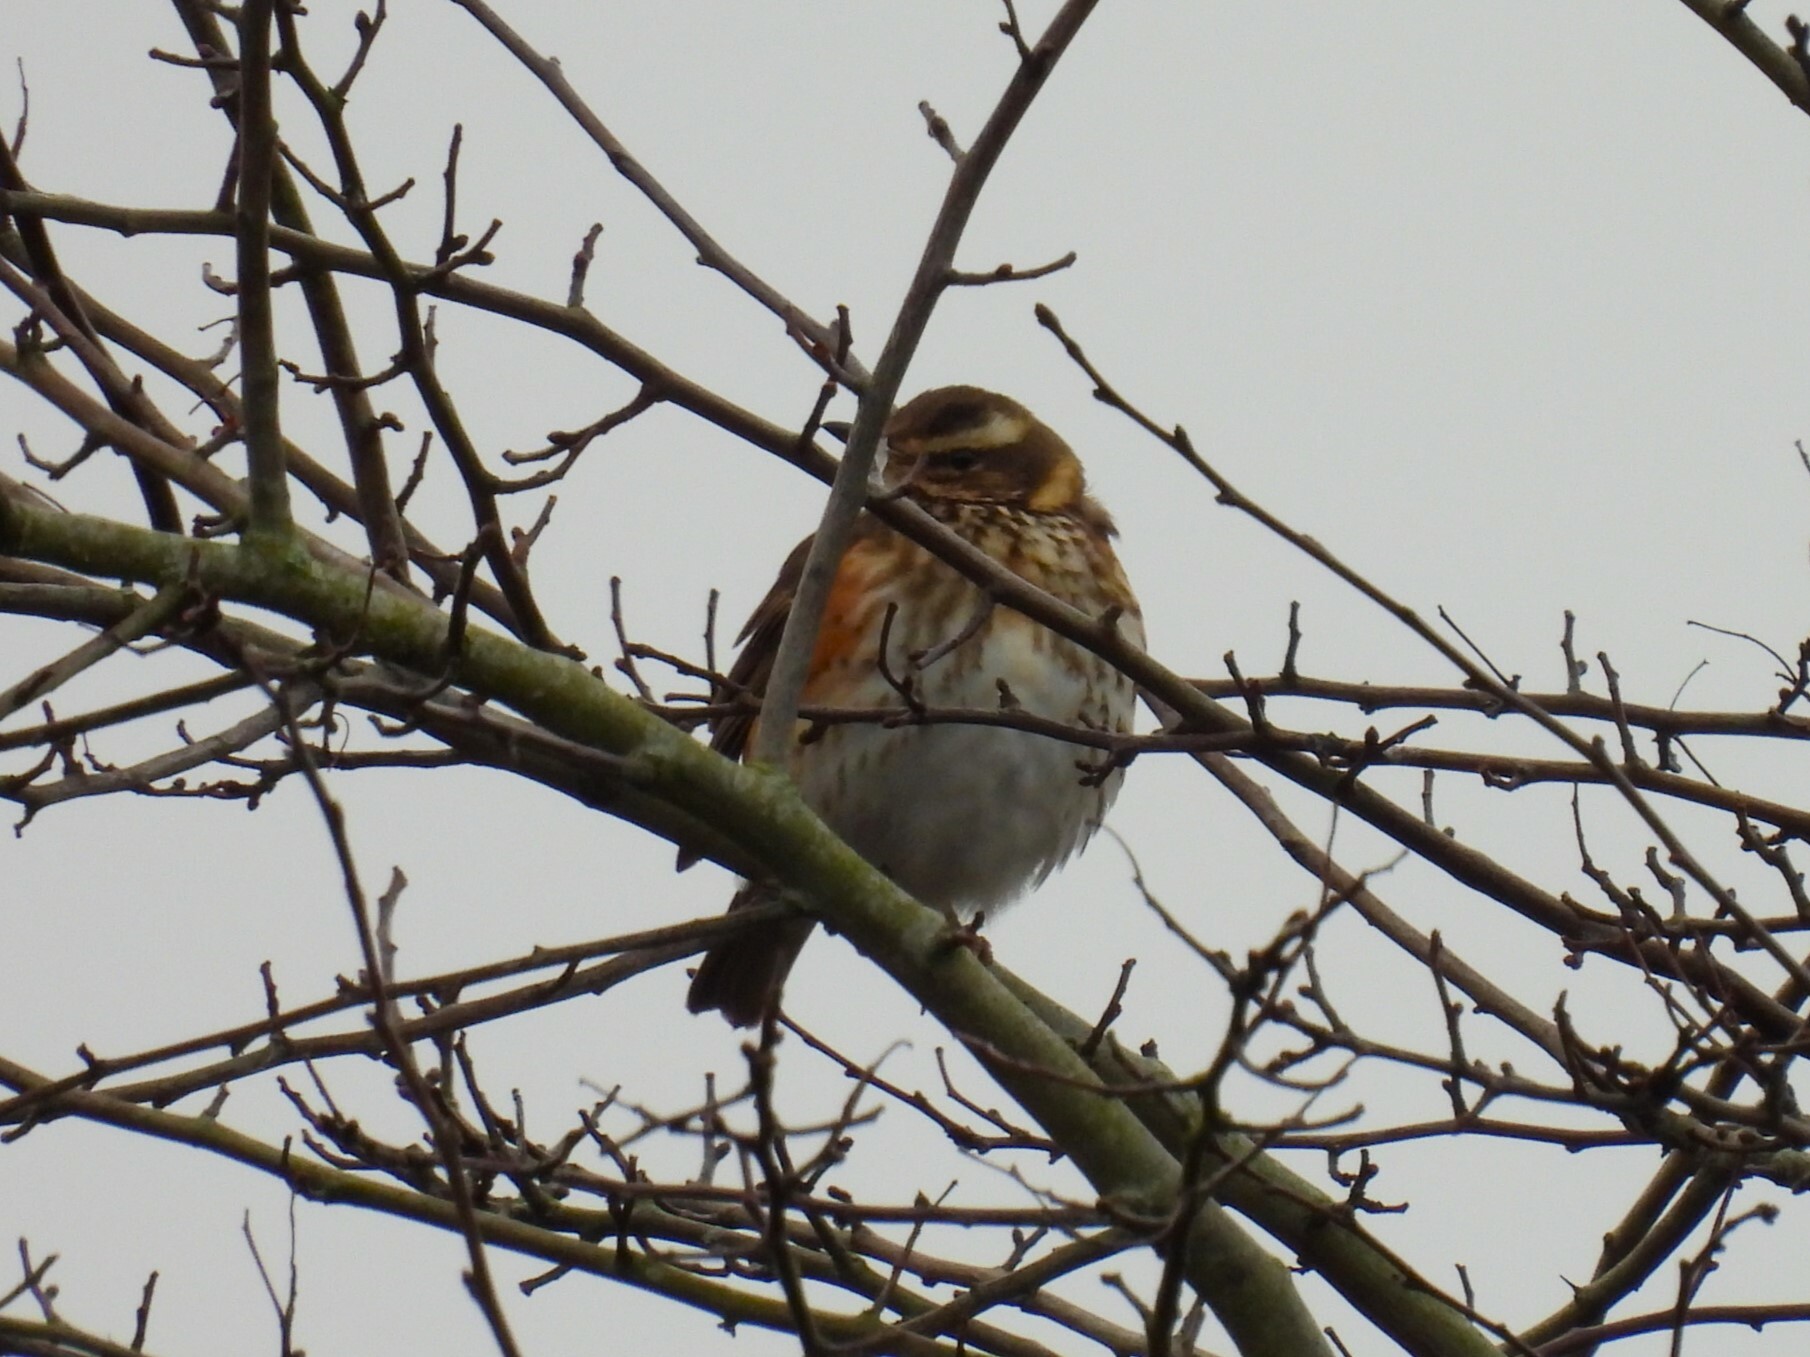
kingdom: Animalia
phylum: Chordata
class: Aves
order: Passeriformes
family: Turdidae
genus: Turdus
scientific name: Turdus iliacus
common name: Redwing
